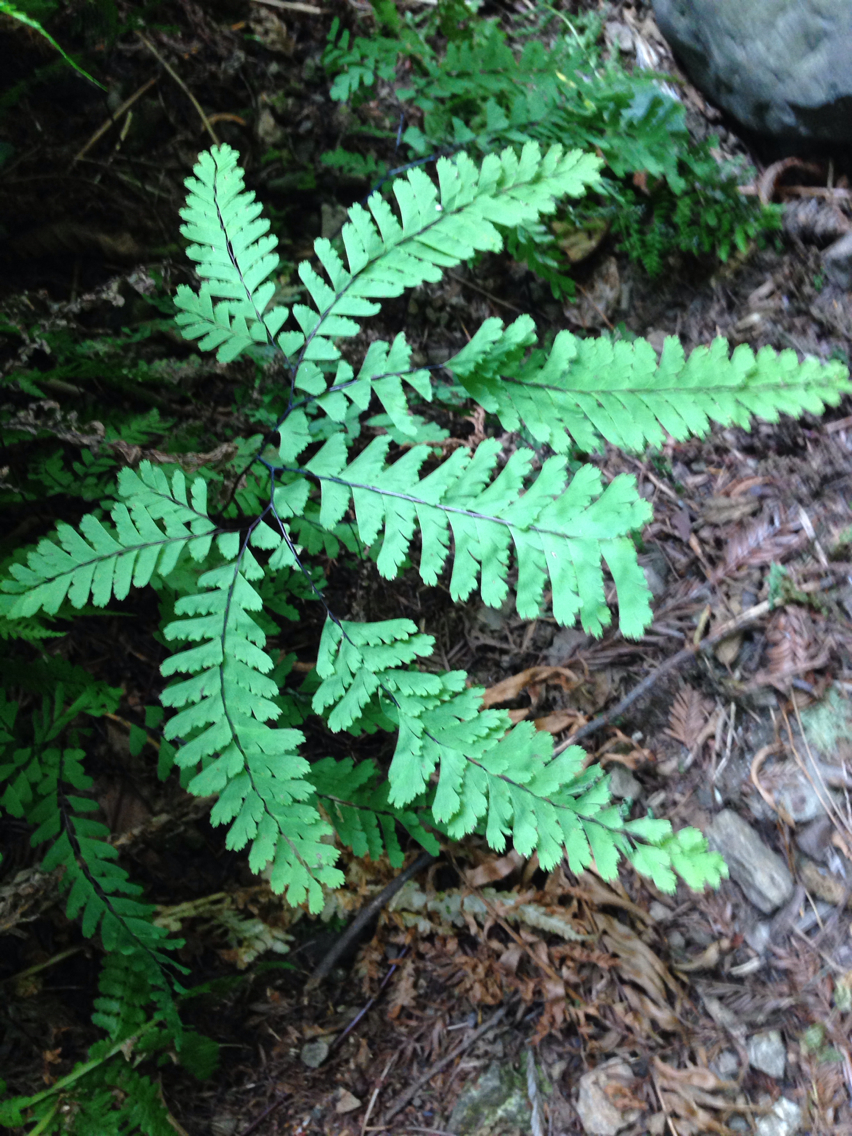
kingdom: Plantae
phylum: Tracheophyta
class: Polypodiopsida
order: Polypodiales
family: Pteridaceae
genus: Adiantum
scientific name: Adiantum aleuticum
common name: Aleutian maidenhair fern
